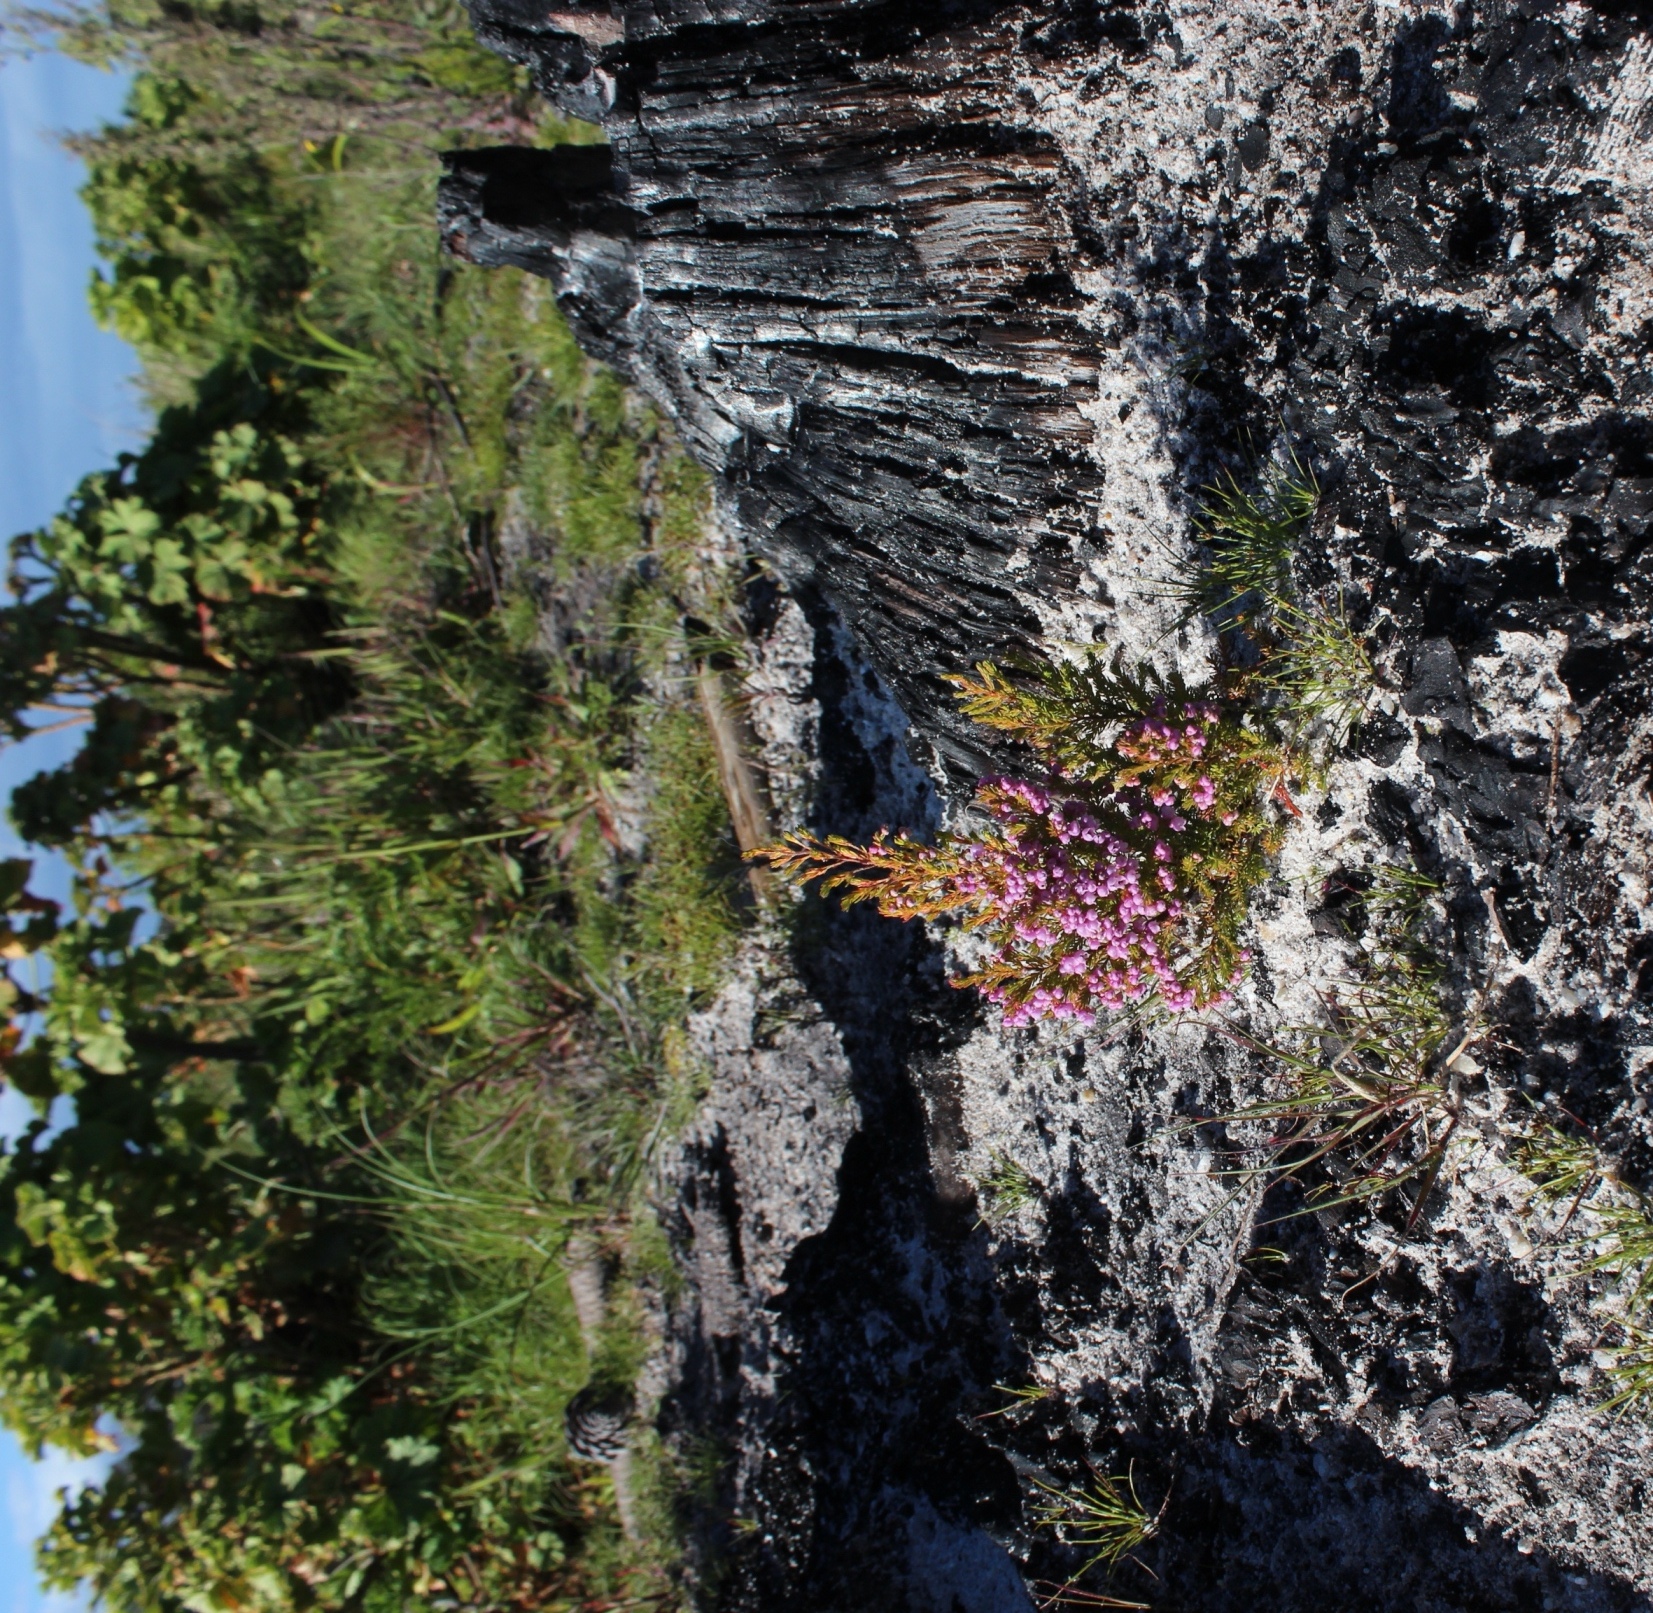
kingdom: Plantae
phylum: Tracheophyta
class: Magnoliopsida
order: Ericales
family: Ericaceae
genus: Erica
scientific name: Erica mauritanica
